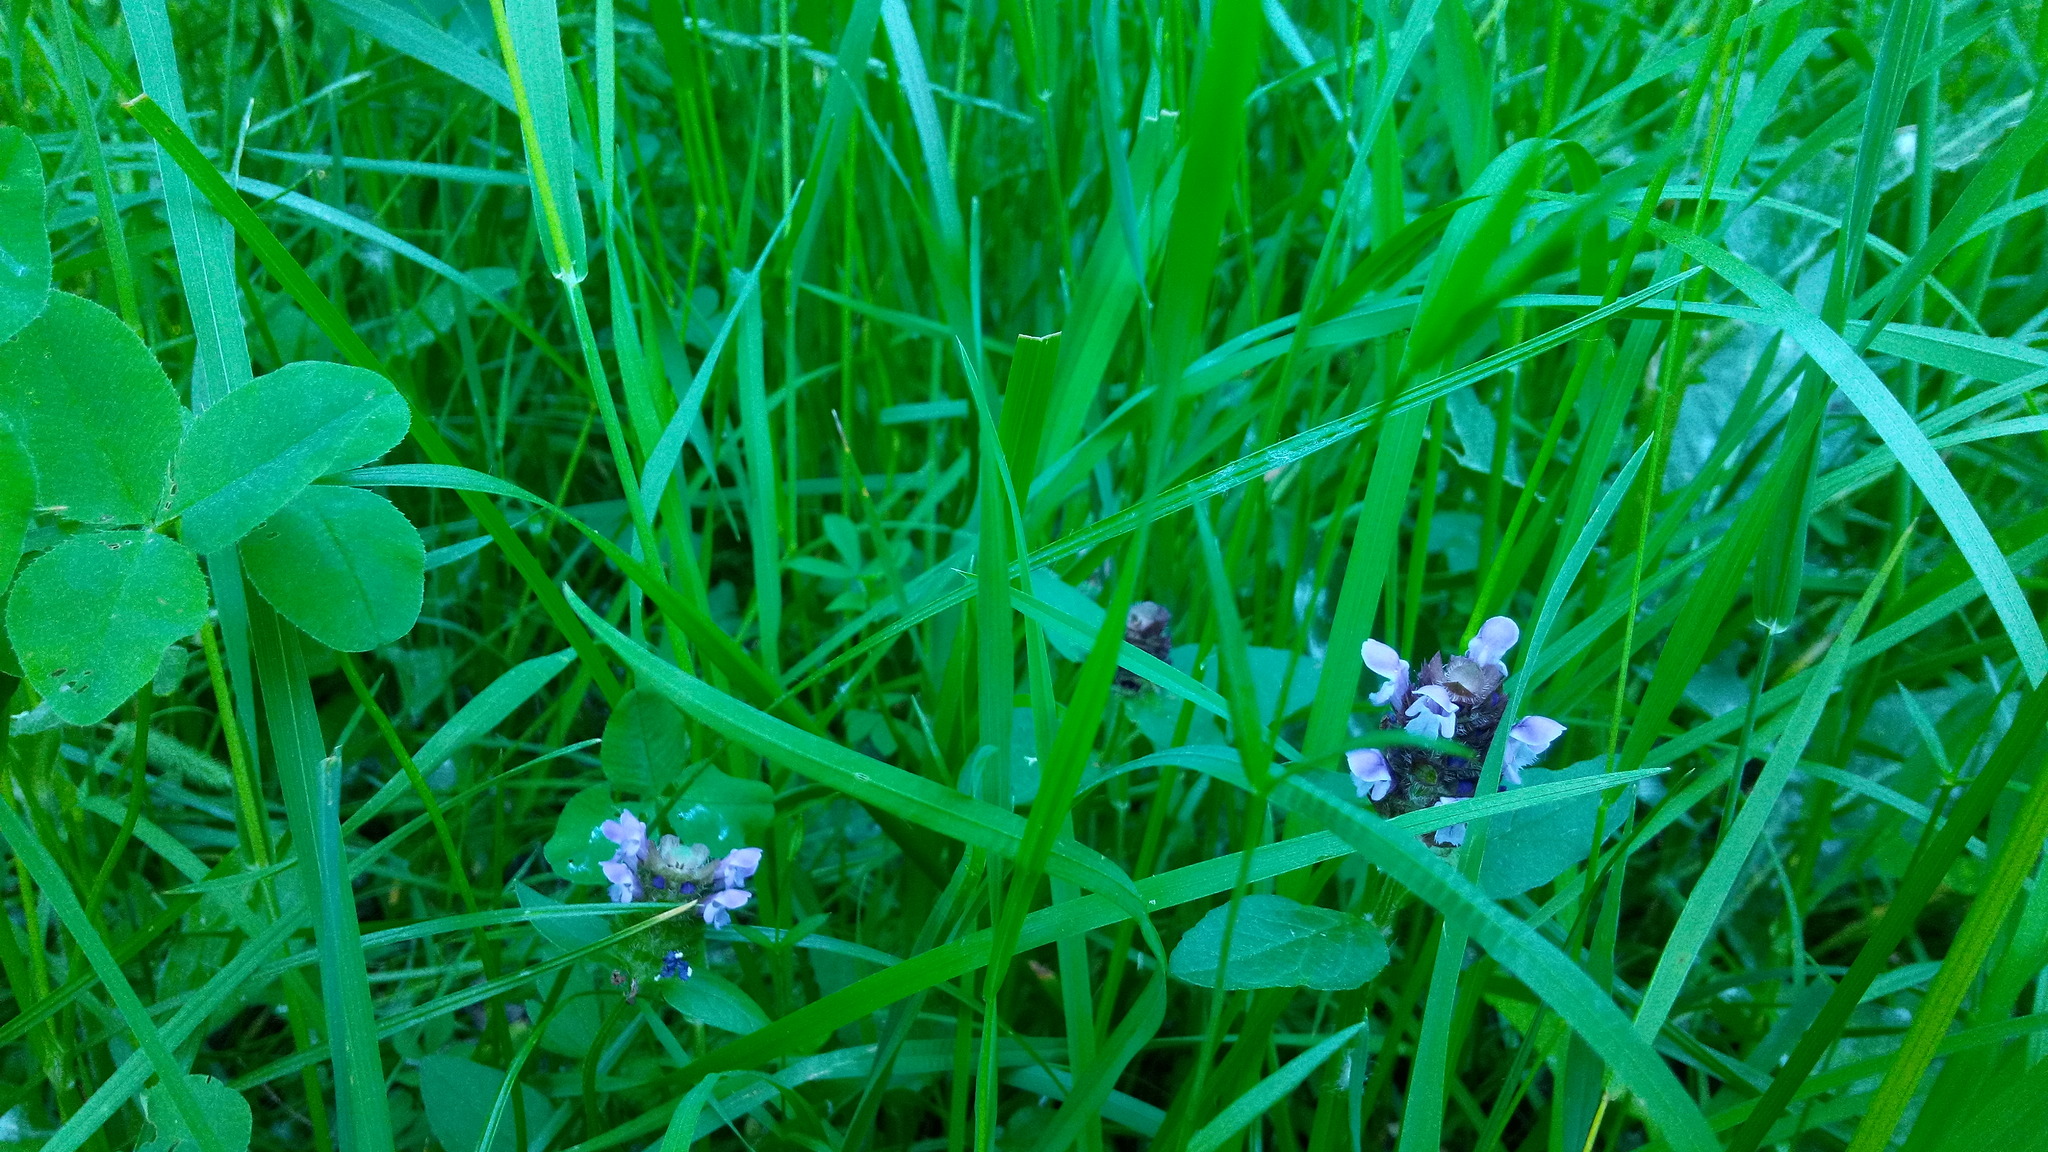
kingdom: Plantae
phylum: Tracheophyta
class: Magnoliopsida
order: Lamiales
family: Lamiaceae
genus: Prunella
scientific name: Prunella vulgaris
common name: Heal-all
